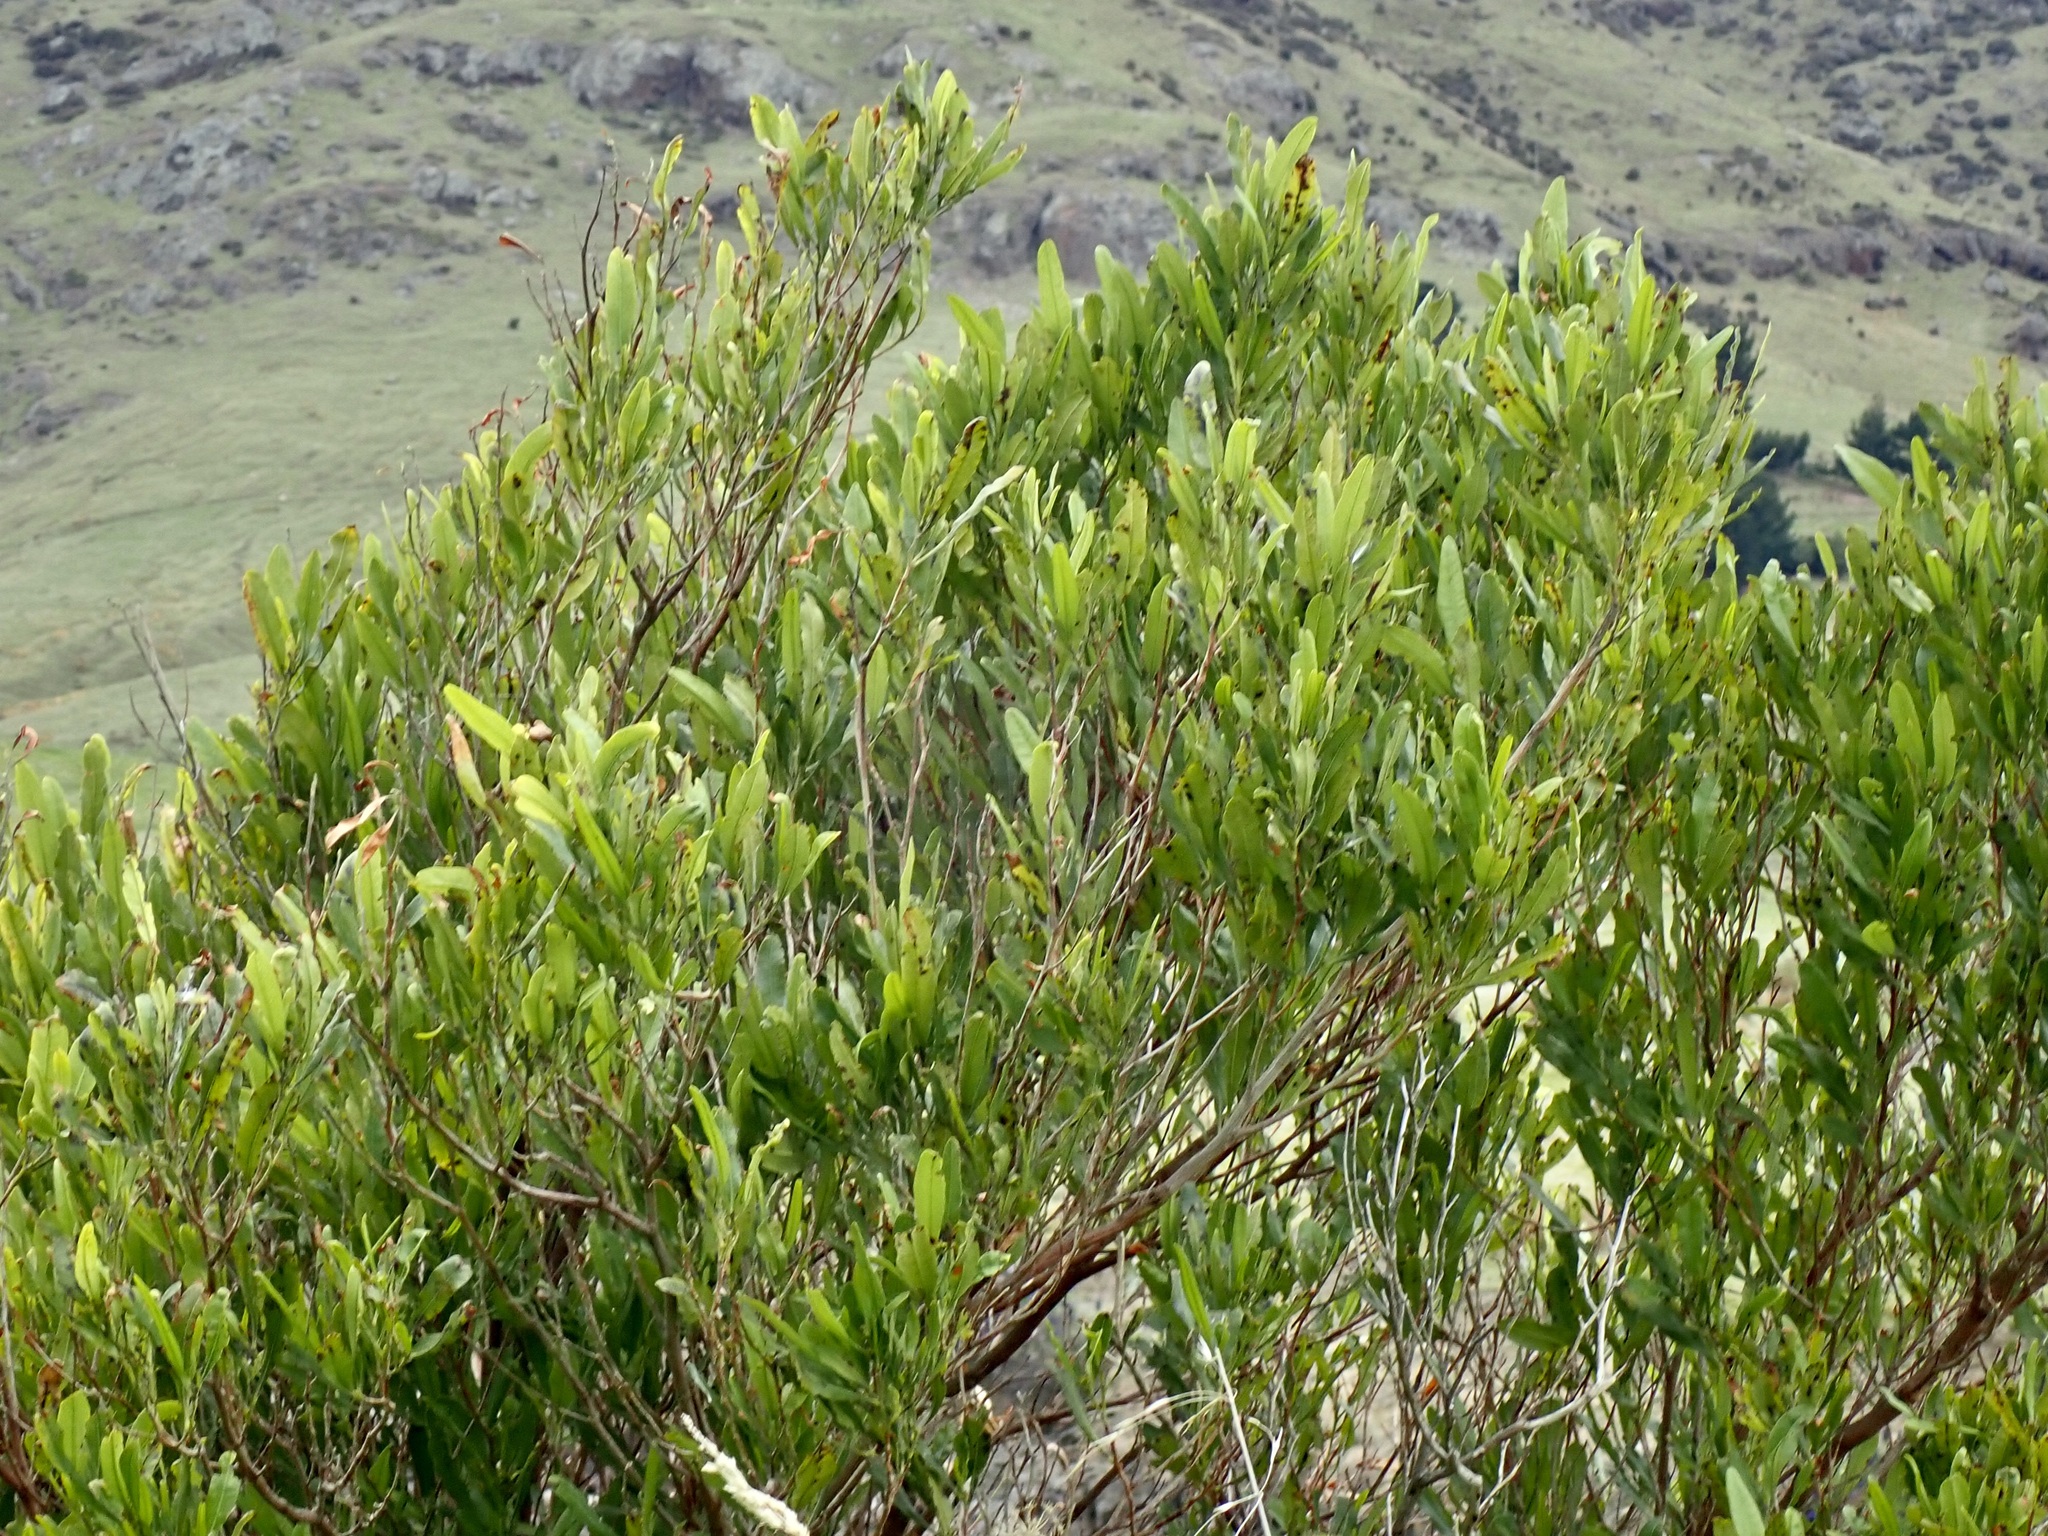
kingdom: Plantae
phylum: Tracheophyta
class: Magnoliopsida
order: Sapindales
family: Sapindaceae
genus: Dodonaea
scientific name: Dodonaea viscosa
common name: Hopbush
